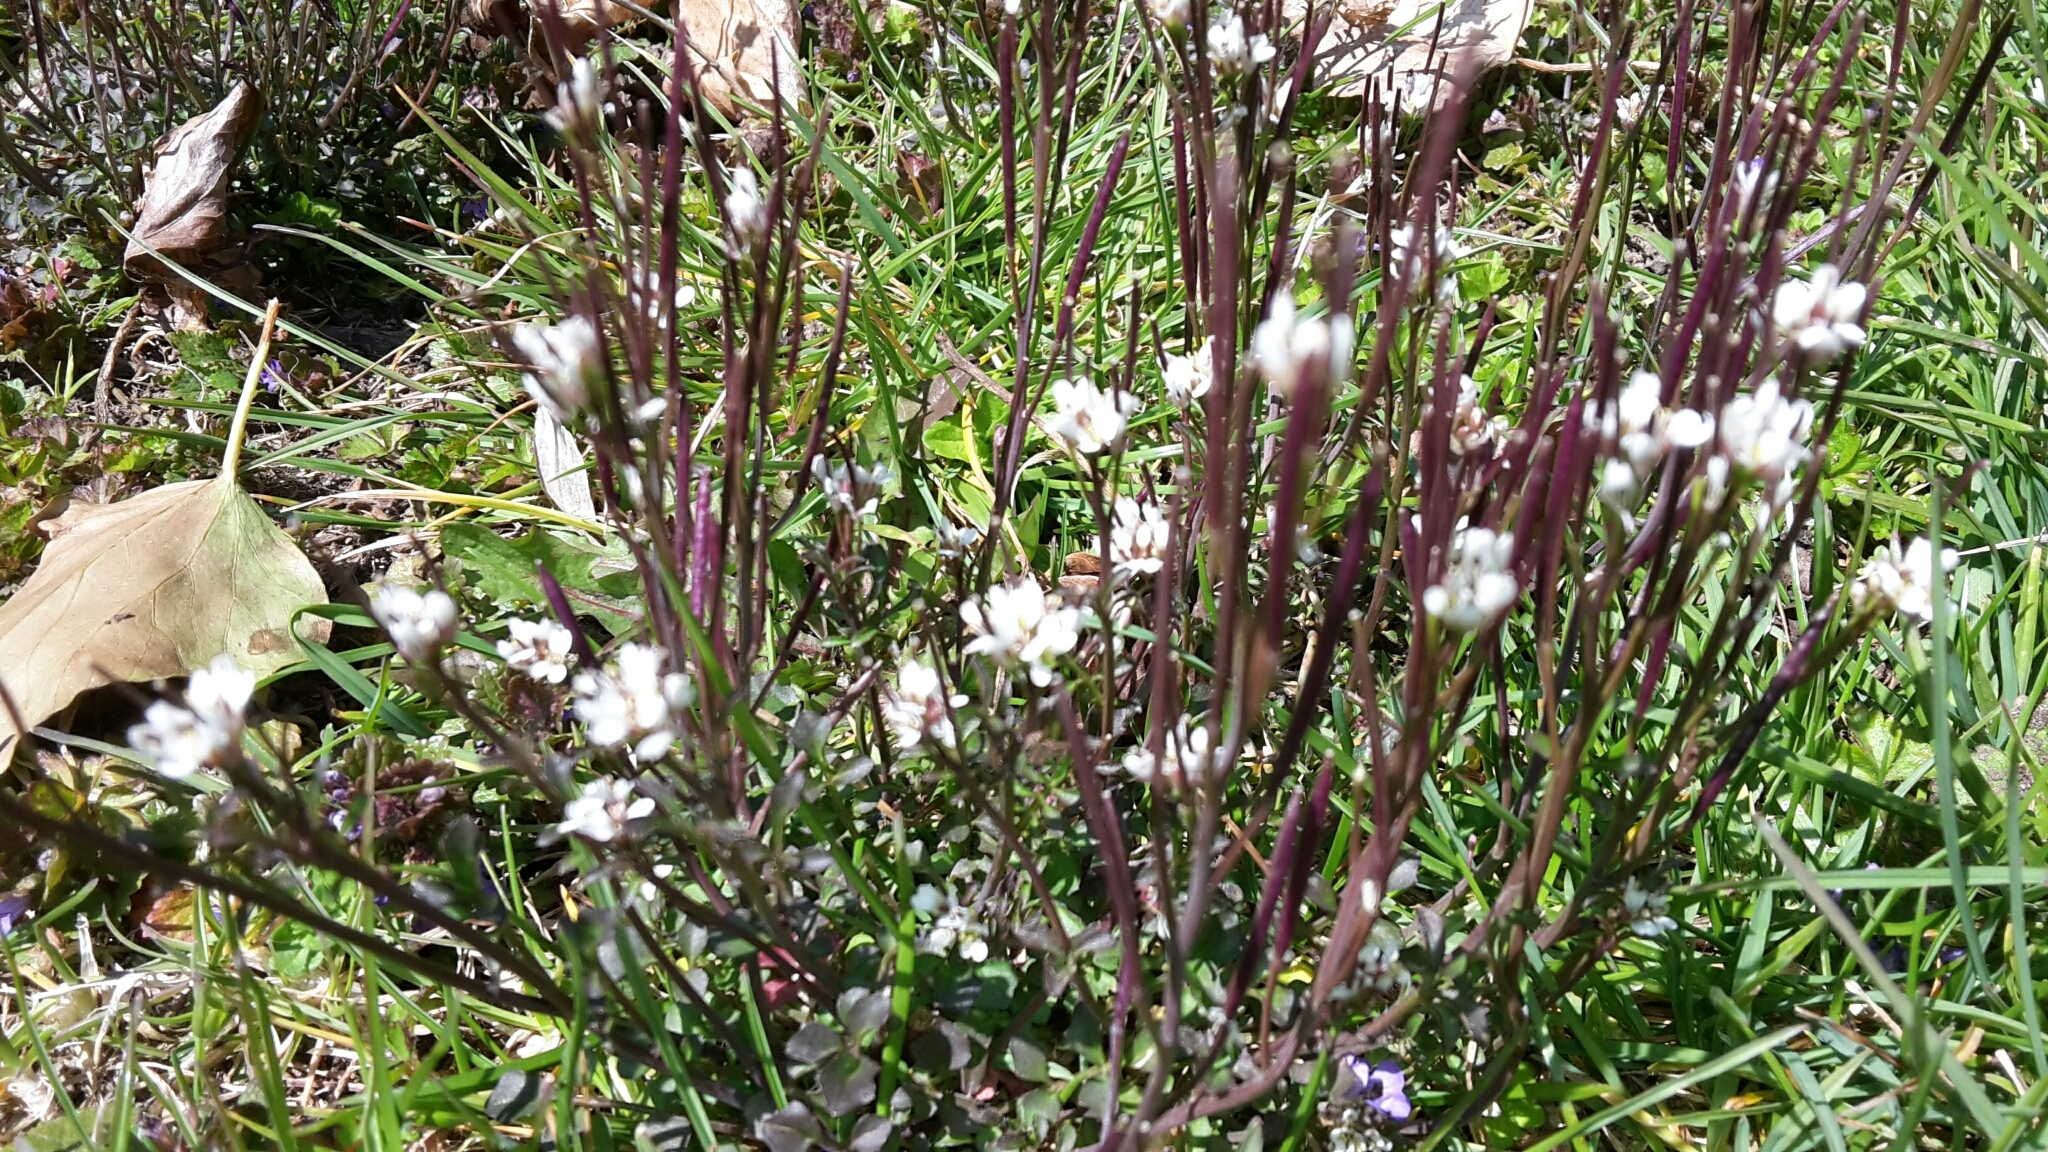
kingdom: Plantae
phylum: Tracheophyta
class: Magnoliopsida
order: Brassicales
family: Brassicaceae
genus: Cardamine
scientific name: Cardamine hirsuta
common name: Hairy bittercress
